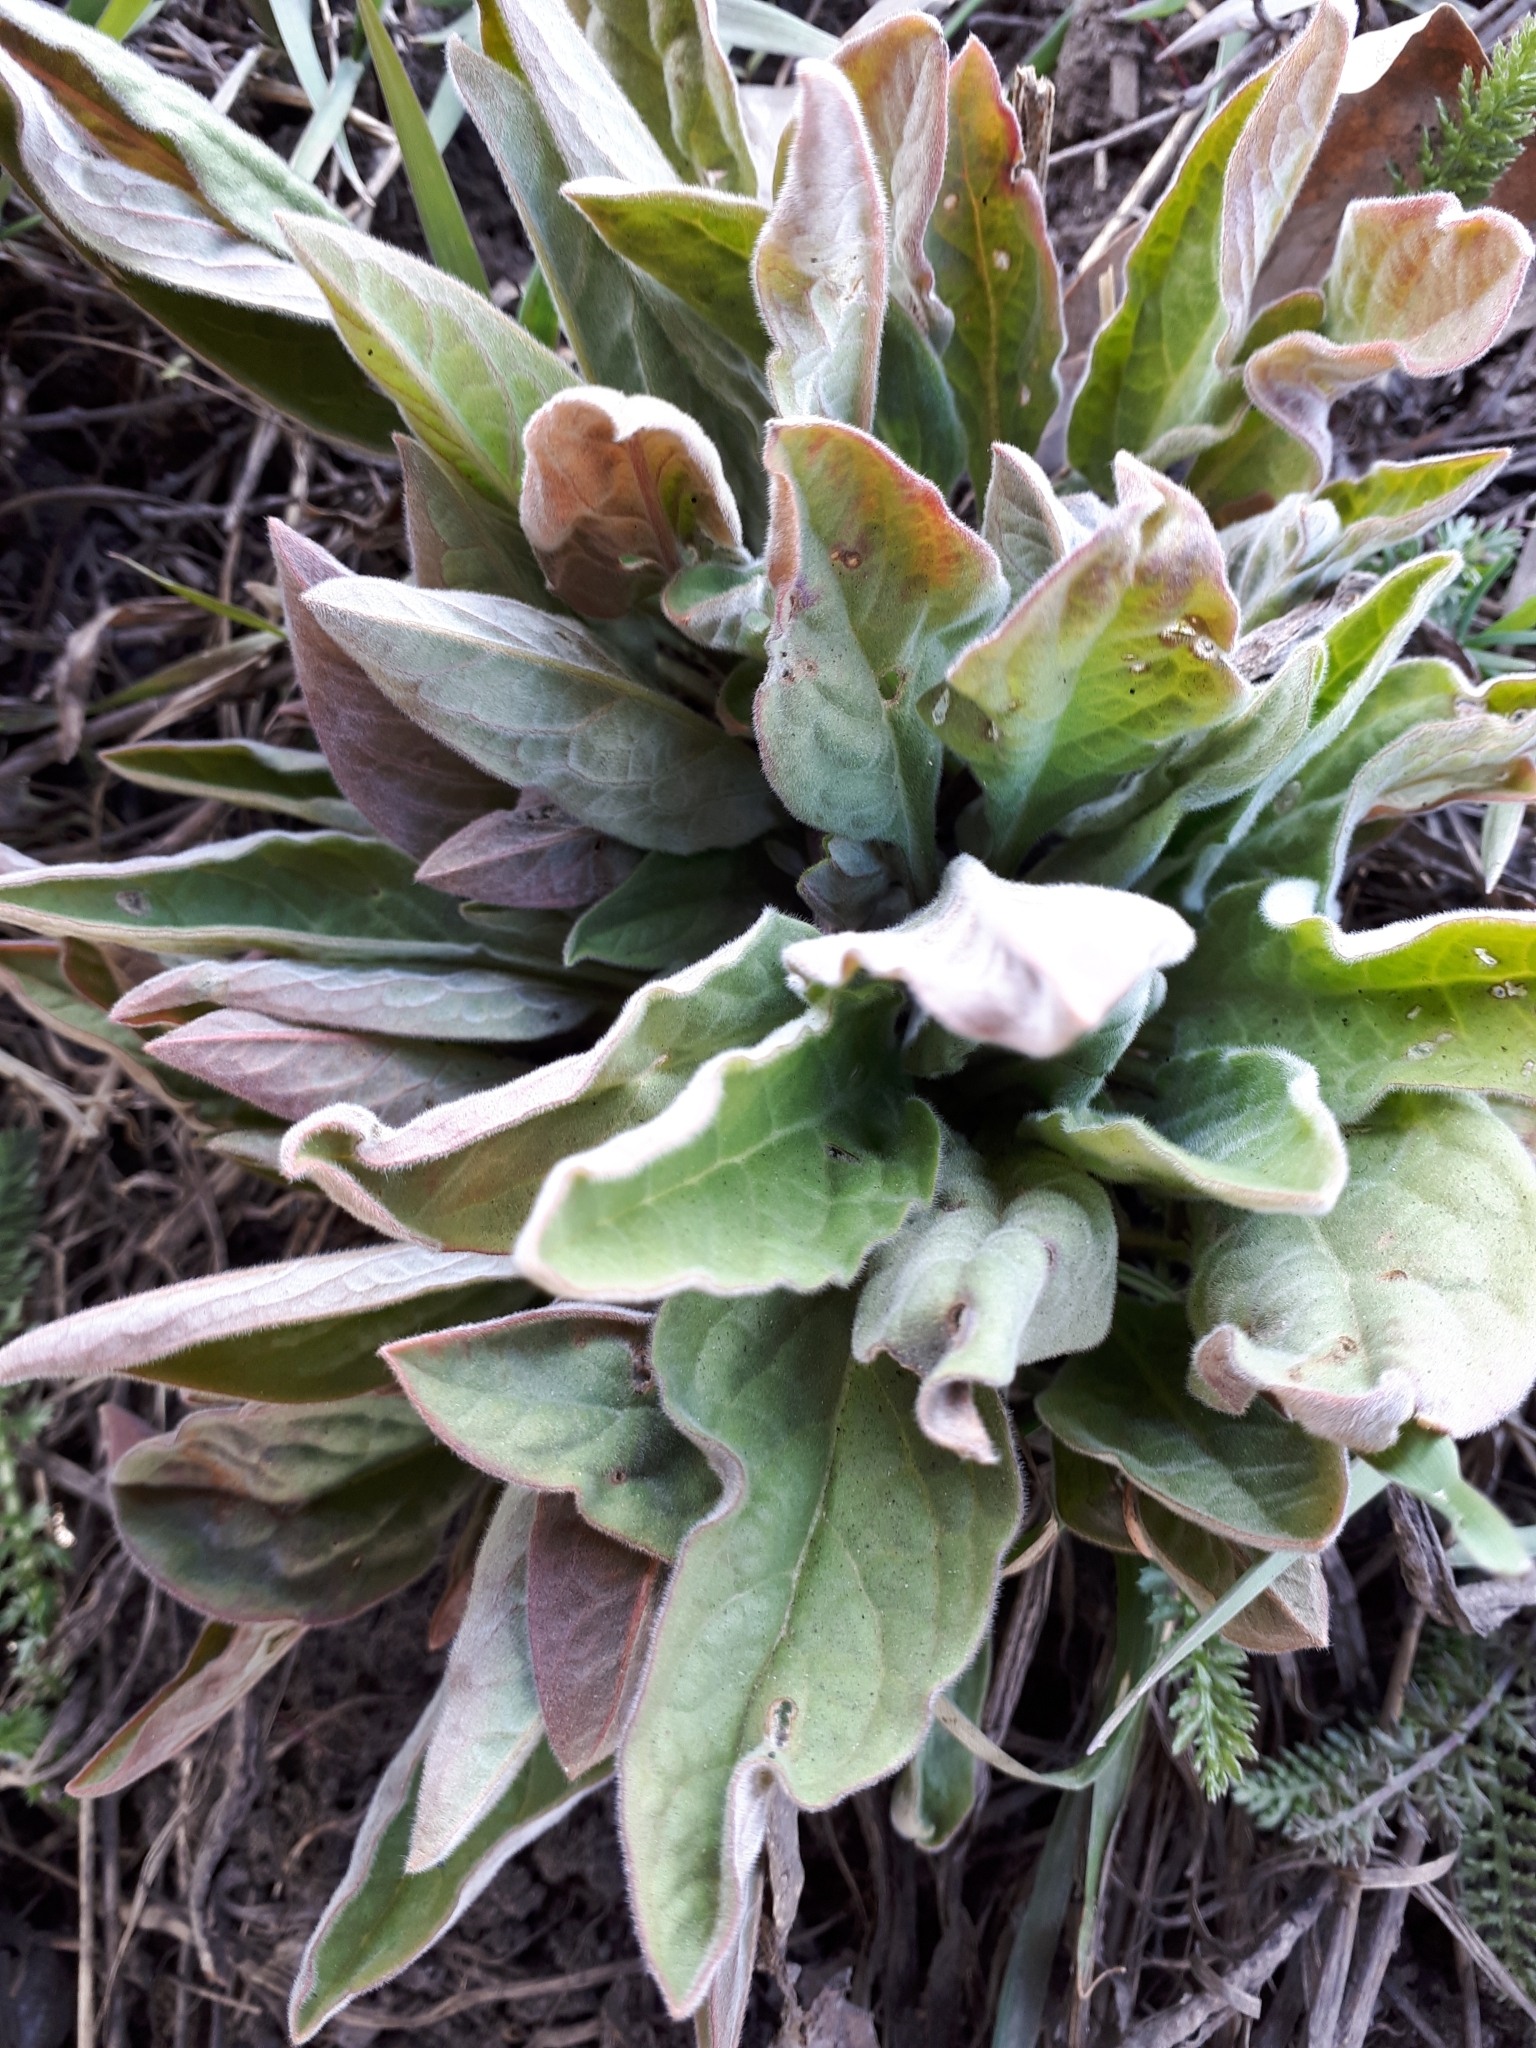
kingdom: Plantae
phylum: Tracheophyta
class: Magnoliopsida
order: Boraginales
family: Boraginaceae
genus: Cynoglossum
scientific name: Cynoglossum officinale
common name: Hound's-tongue
